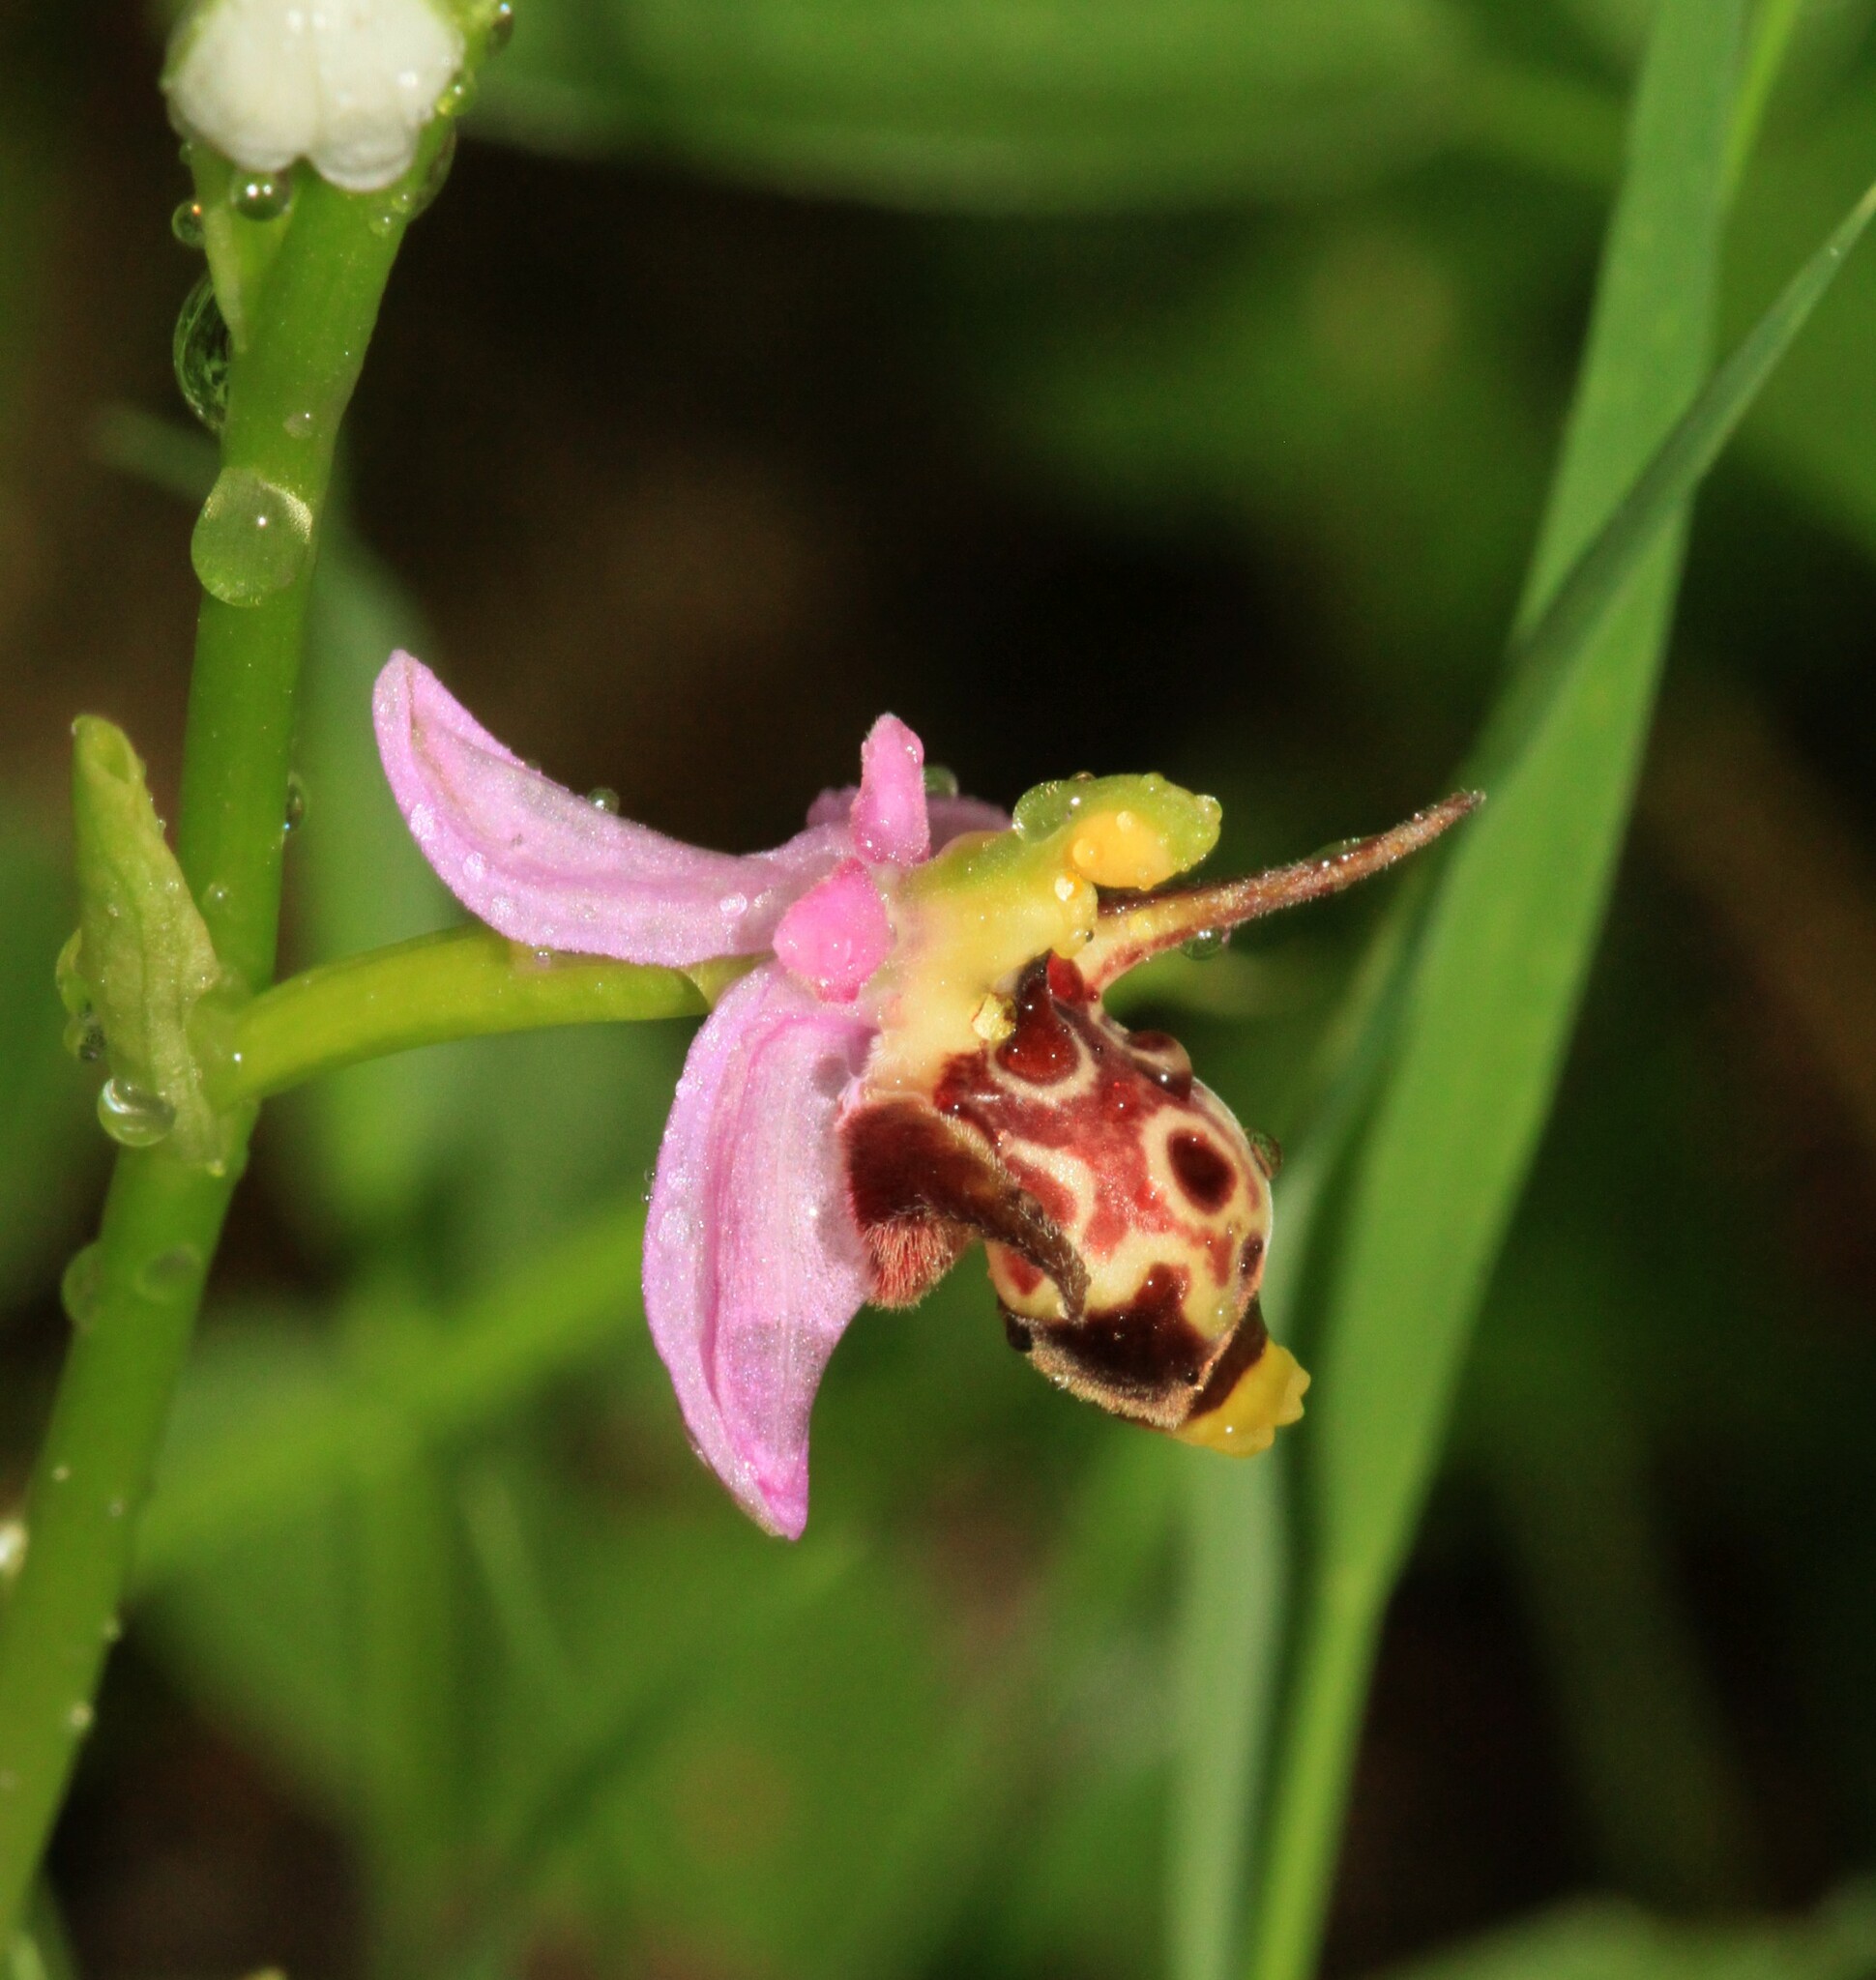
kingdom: Plantae
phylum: Tracheophyta
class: Liliopsida
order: Asparagales
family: Orchidaceae
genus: Ophrys
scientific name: Ophrys
